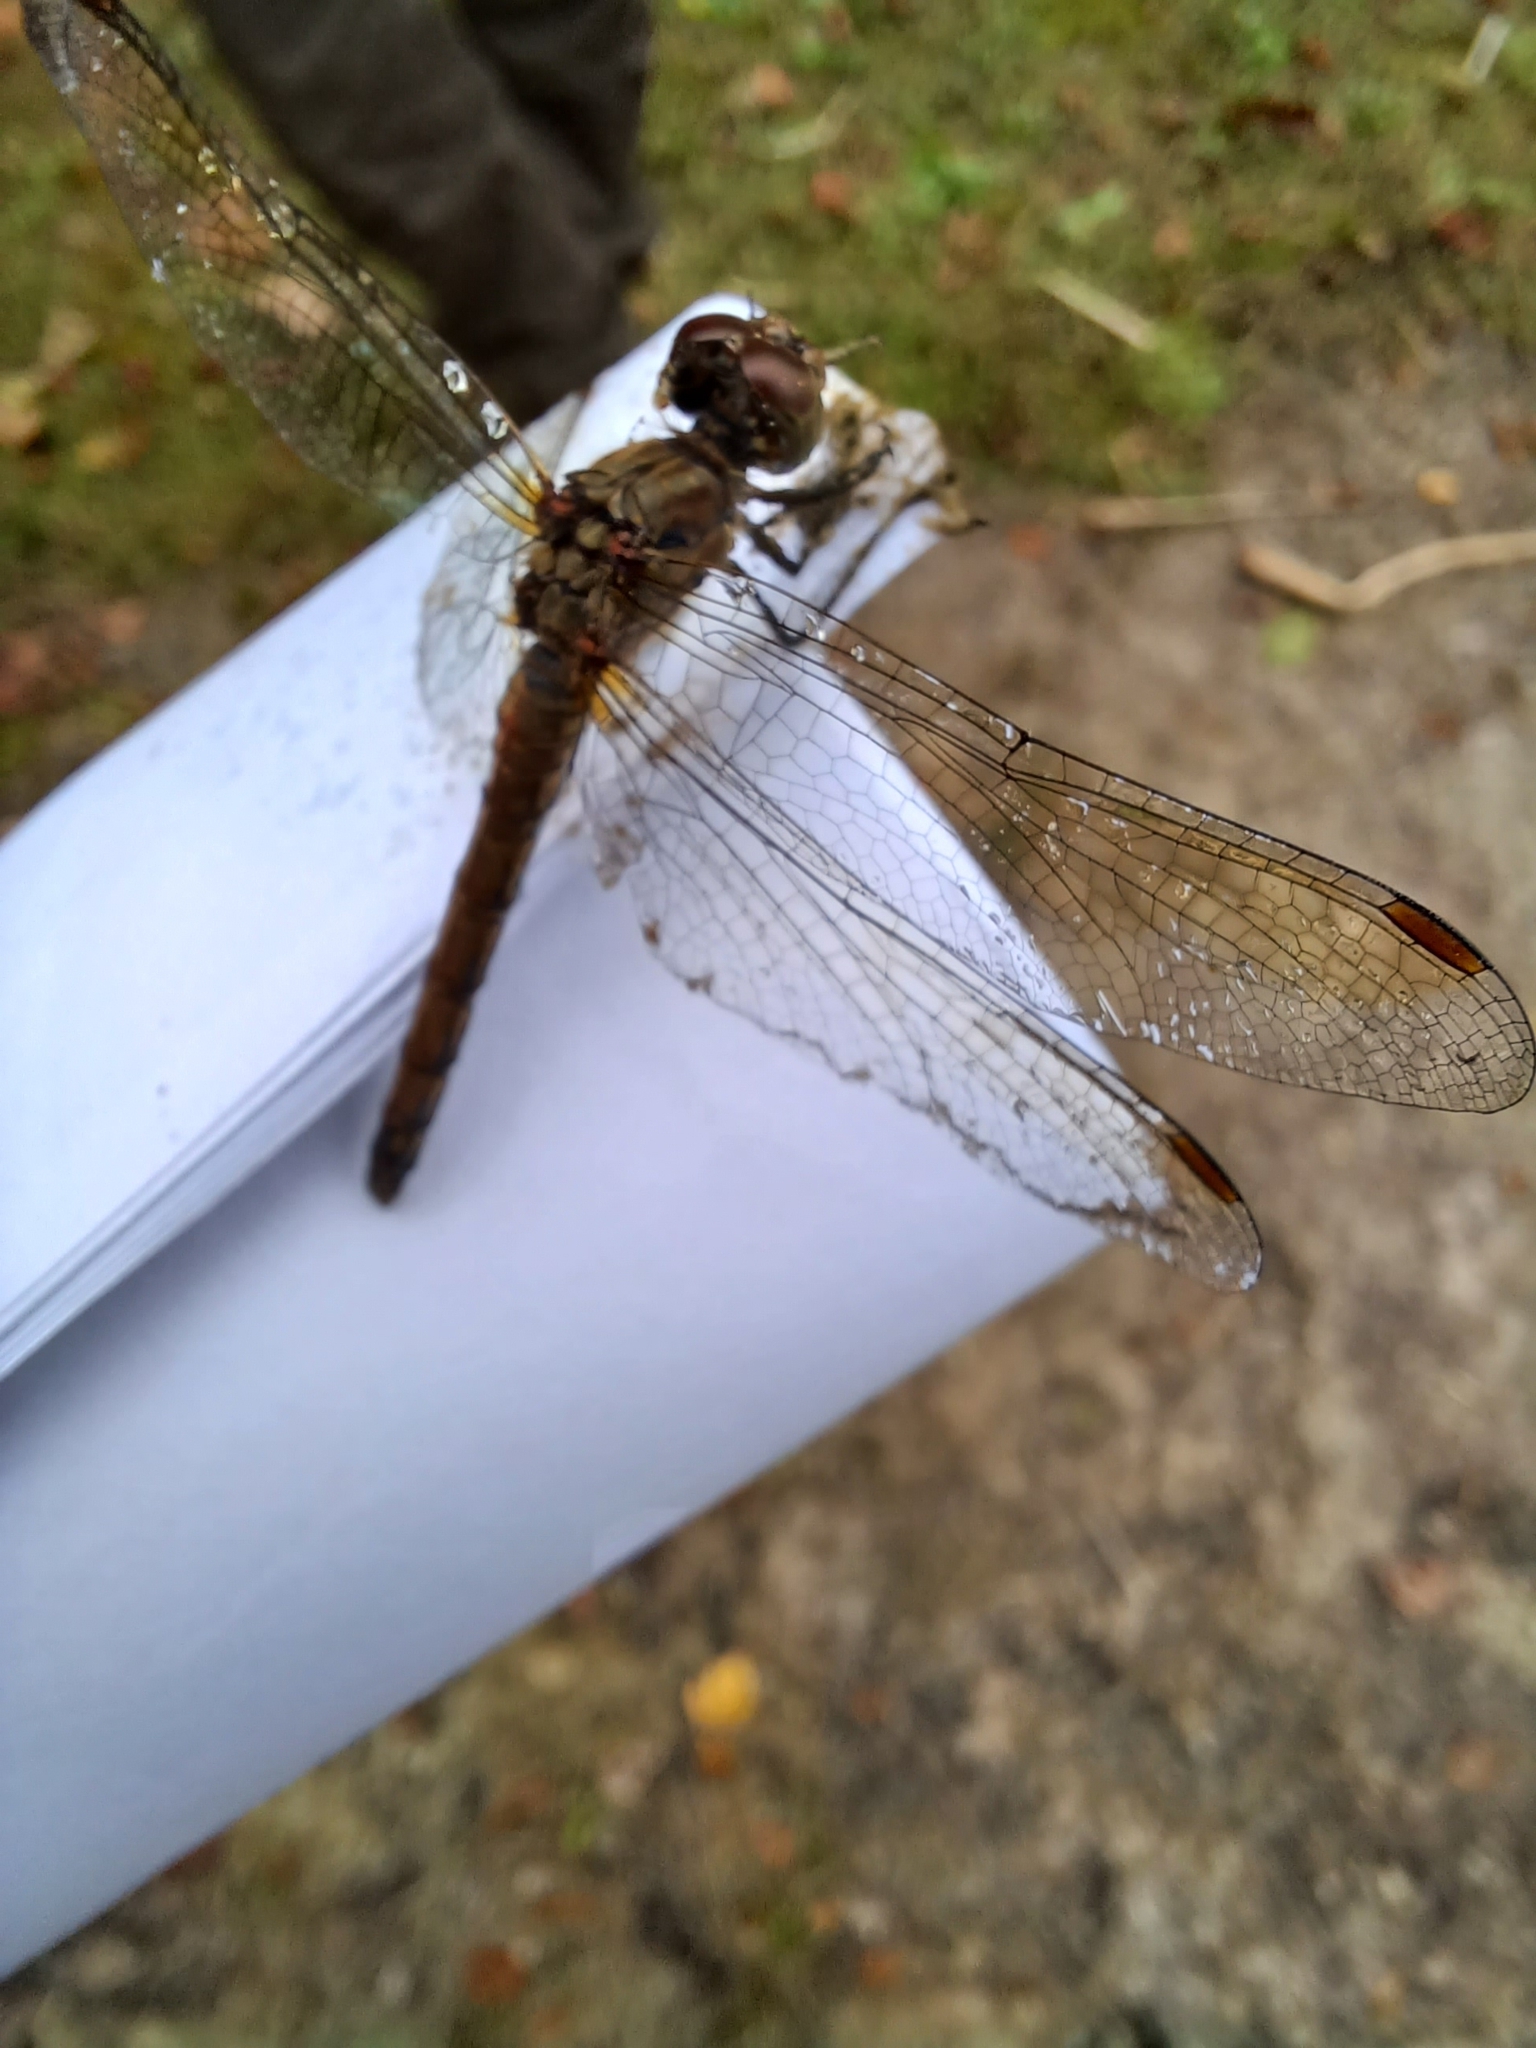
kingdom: Animalia
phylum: Arthropoda
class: Insecta
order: Odonata
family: Libellulidae
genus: Sympetrum
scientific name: Sympetrum striolatum
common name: Common darter
